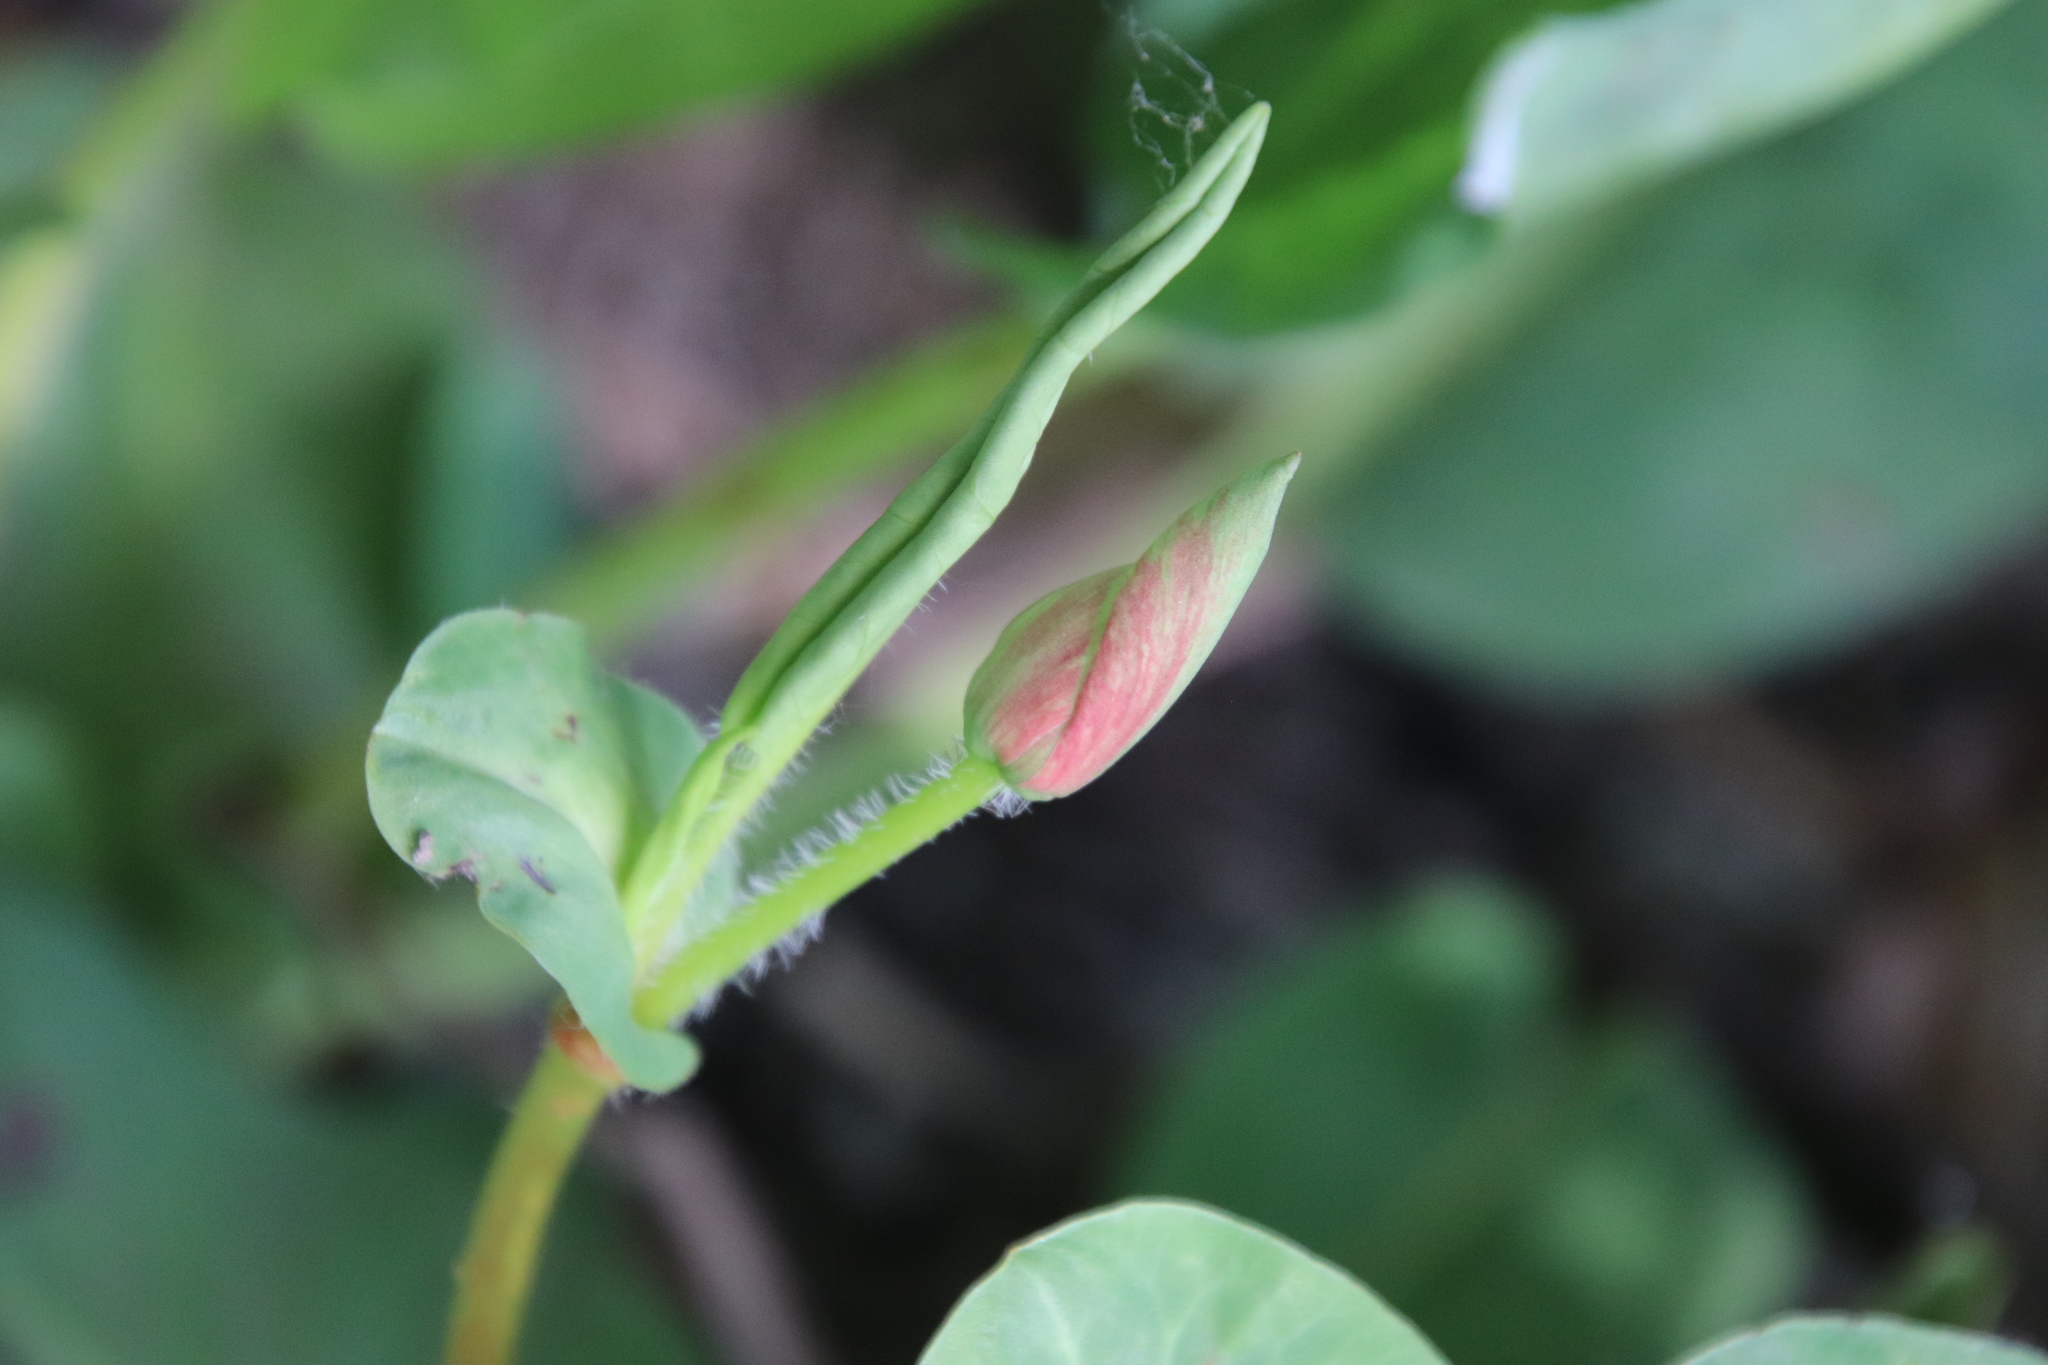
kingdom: Plantae
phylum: Tracheophyta
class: Magnoliopsida
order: Piperales
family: Saururaceae
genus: Anemopsis
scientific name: Anemopsis californica
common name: Apache-beads
